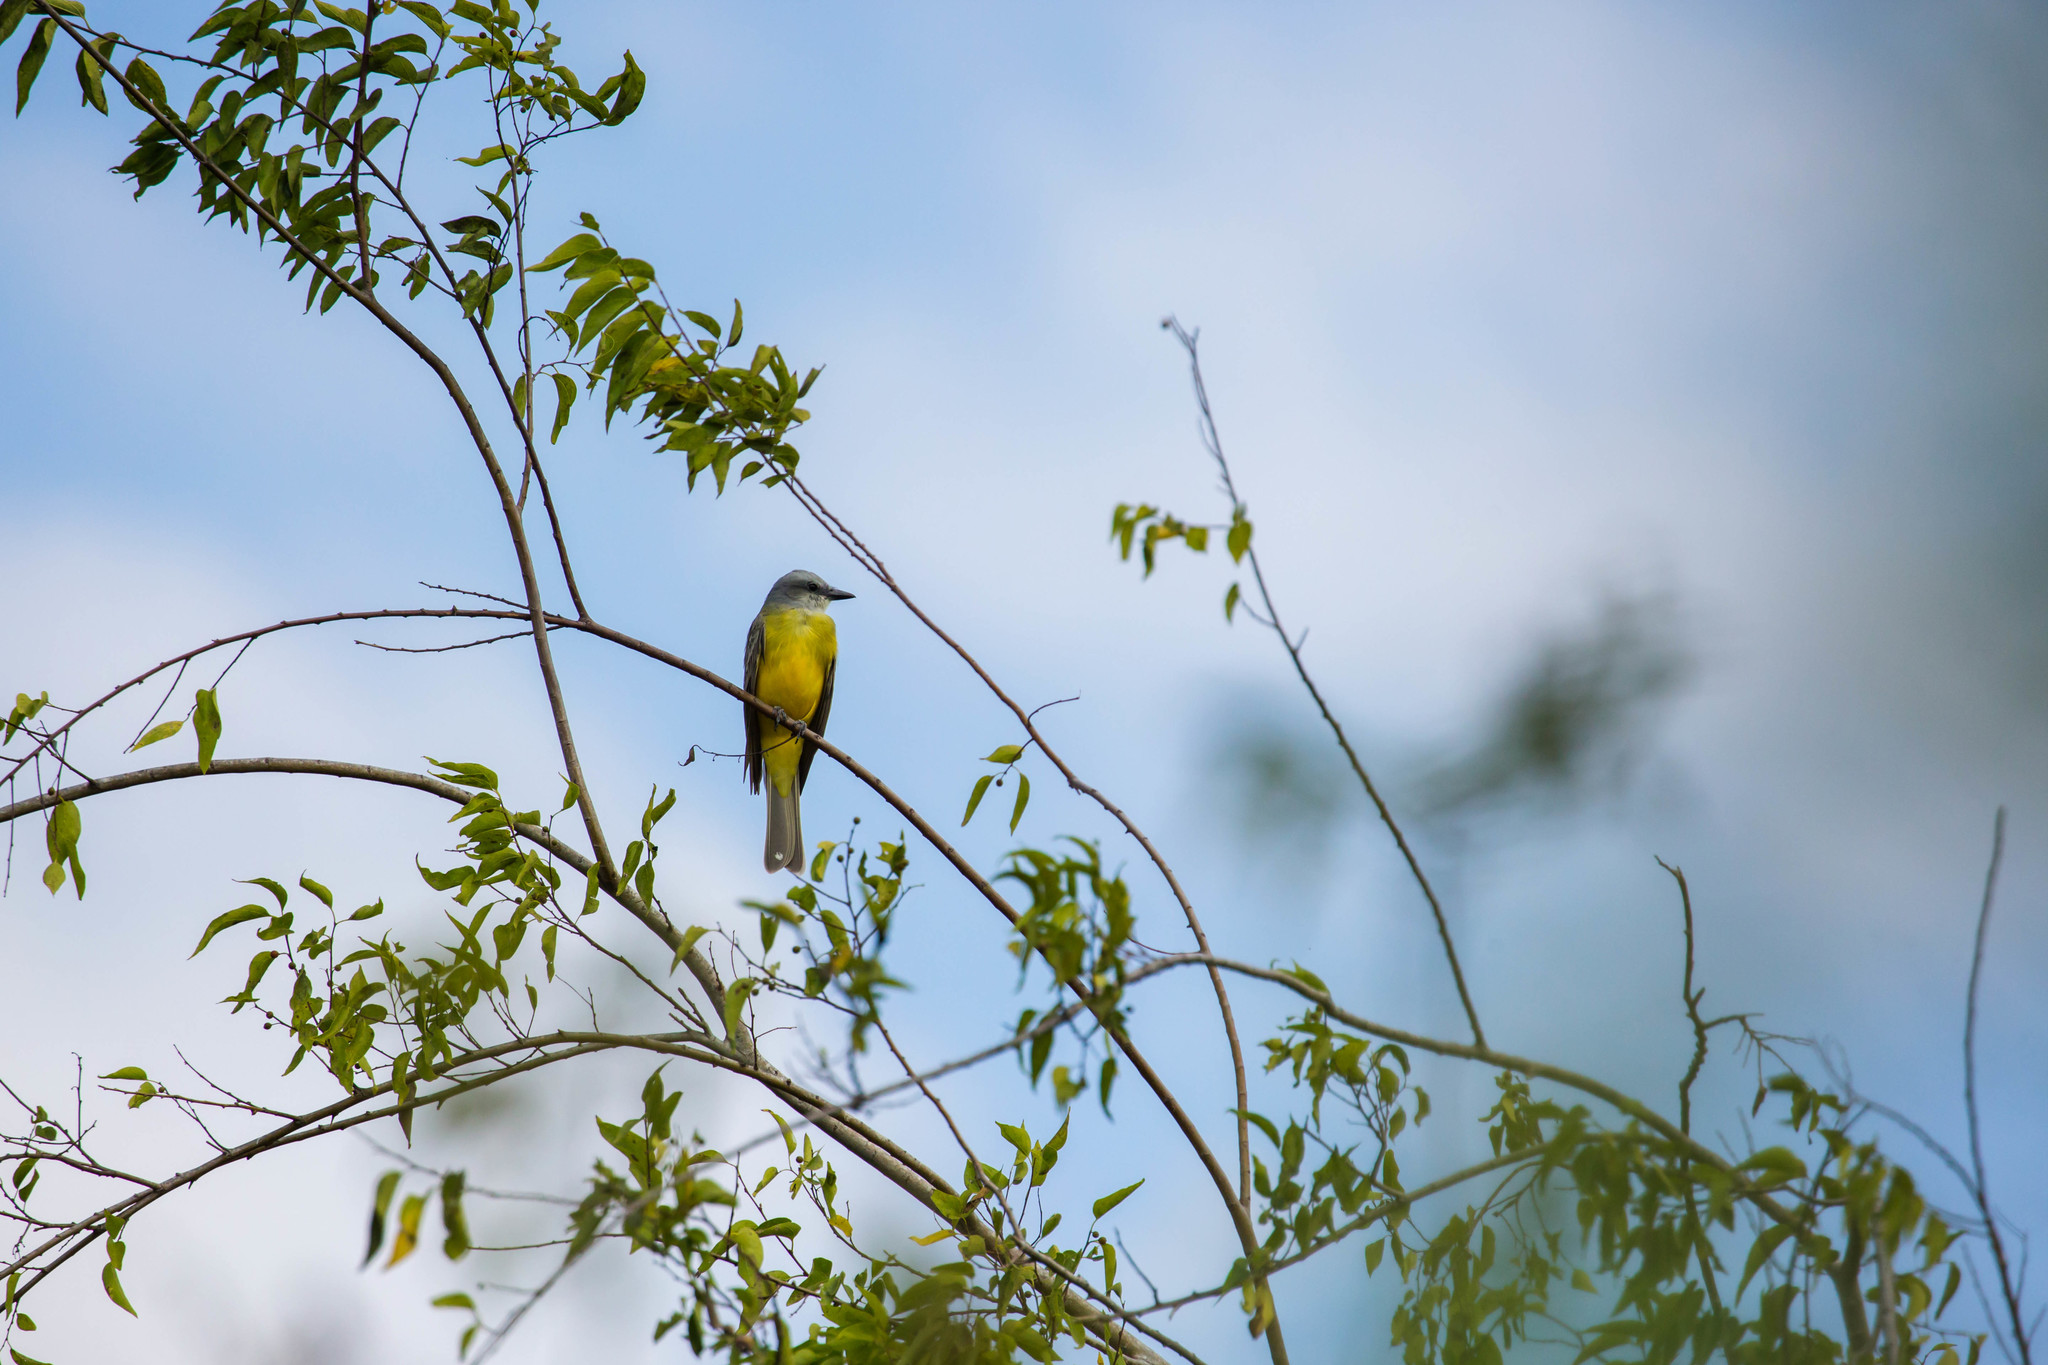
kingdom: Animalia
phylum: Chordata
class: Aves
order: Passeriformes
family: Tyrannidae
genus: Tyrannus
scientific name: Tyrannus
